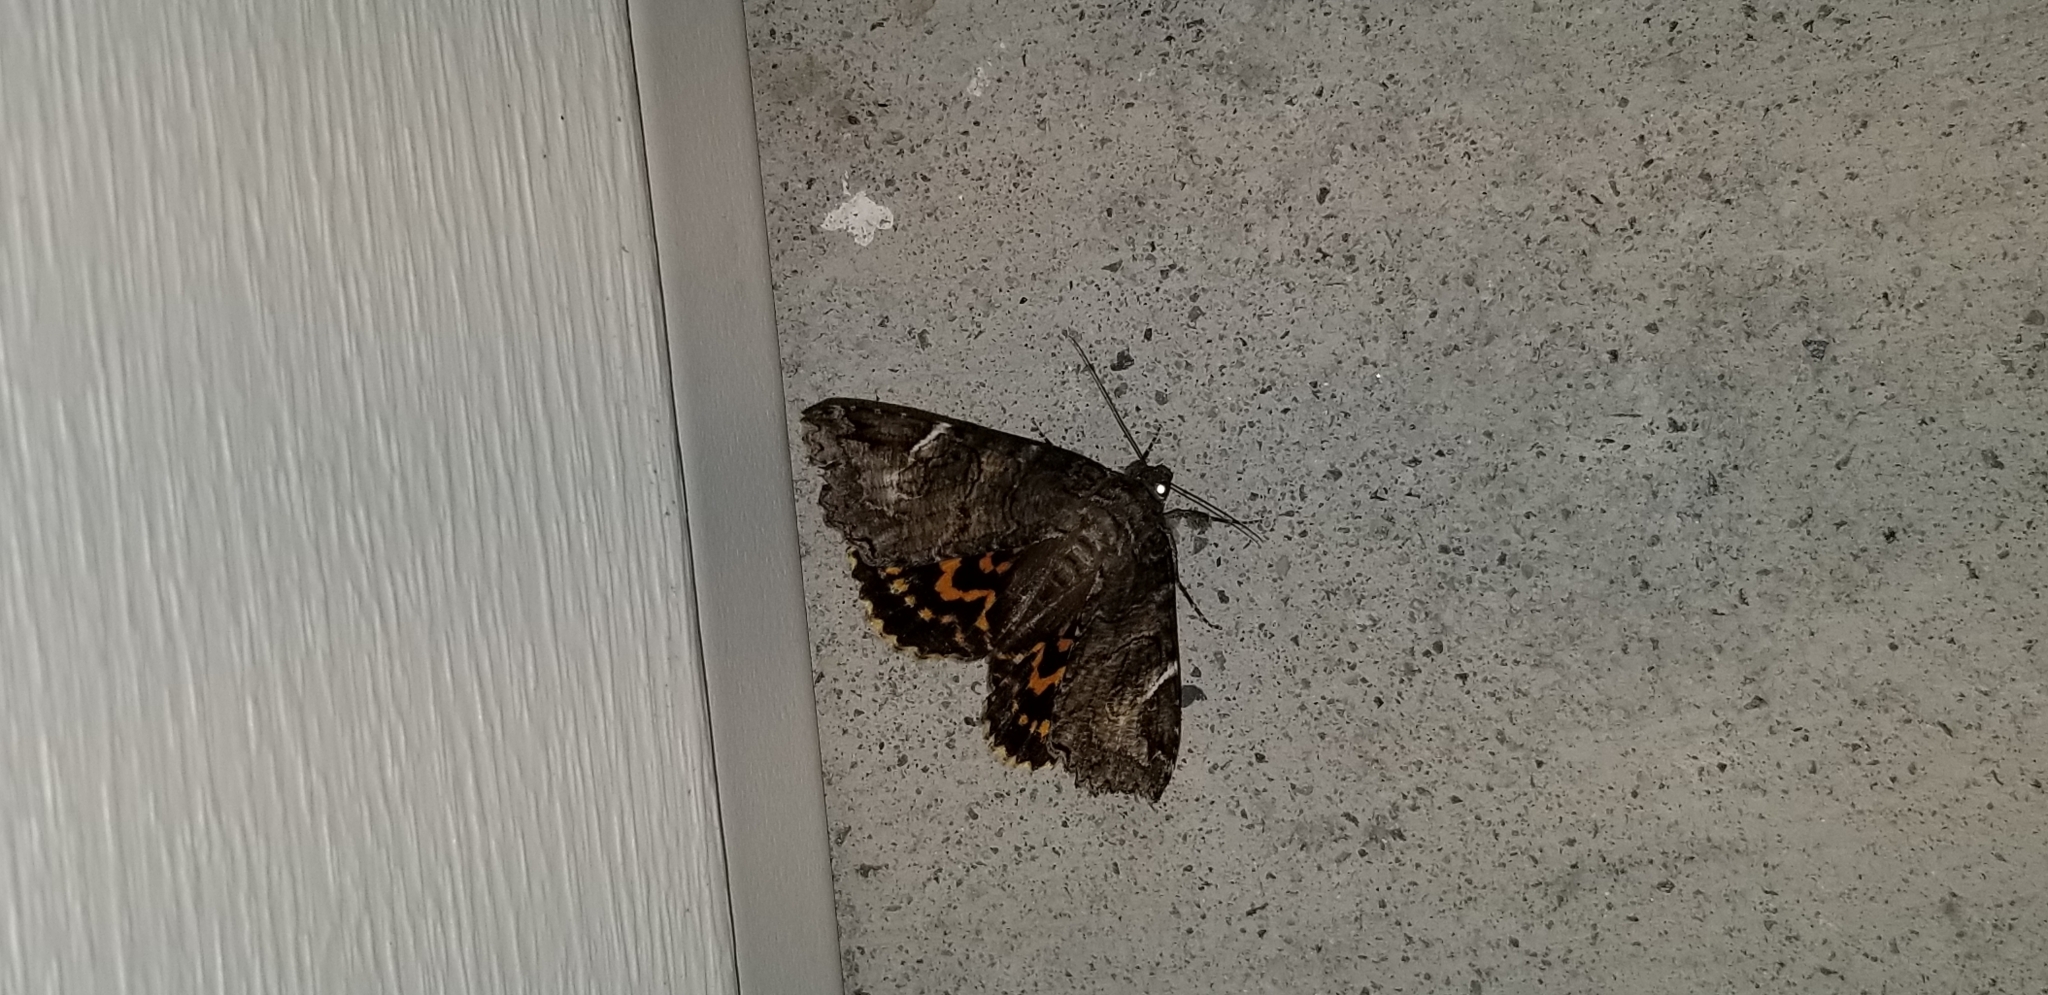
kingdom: Animalia
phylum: Arthropoda
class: Insecta
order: Lepidoptera
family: Erebidae
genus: Euparthenos
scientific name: Euparthenos nubilis
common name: Locust underwing
